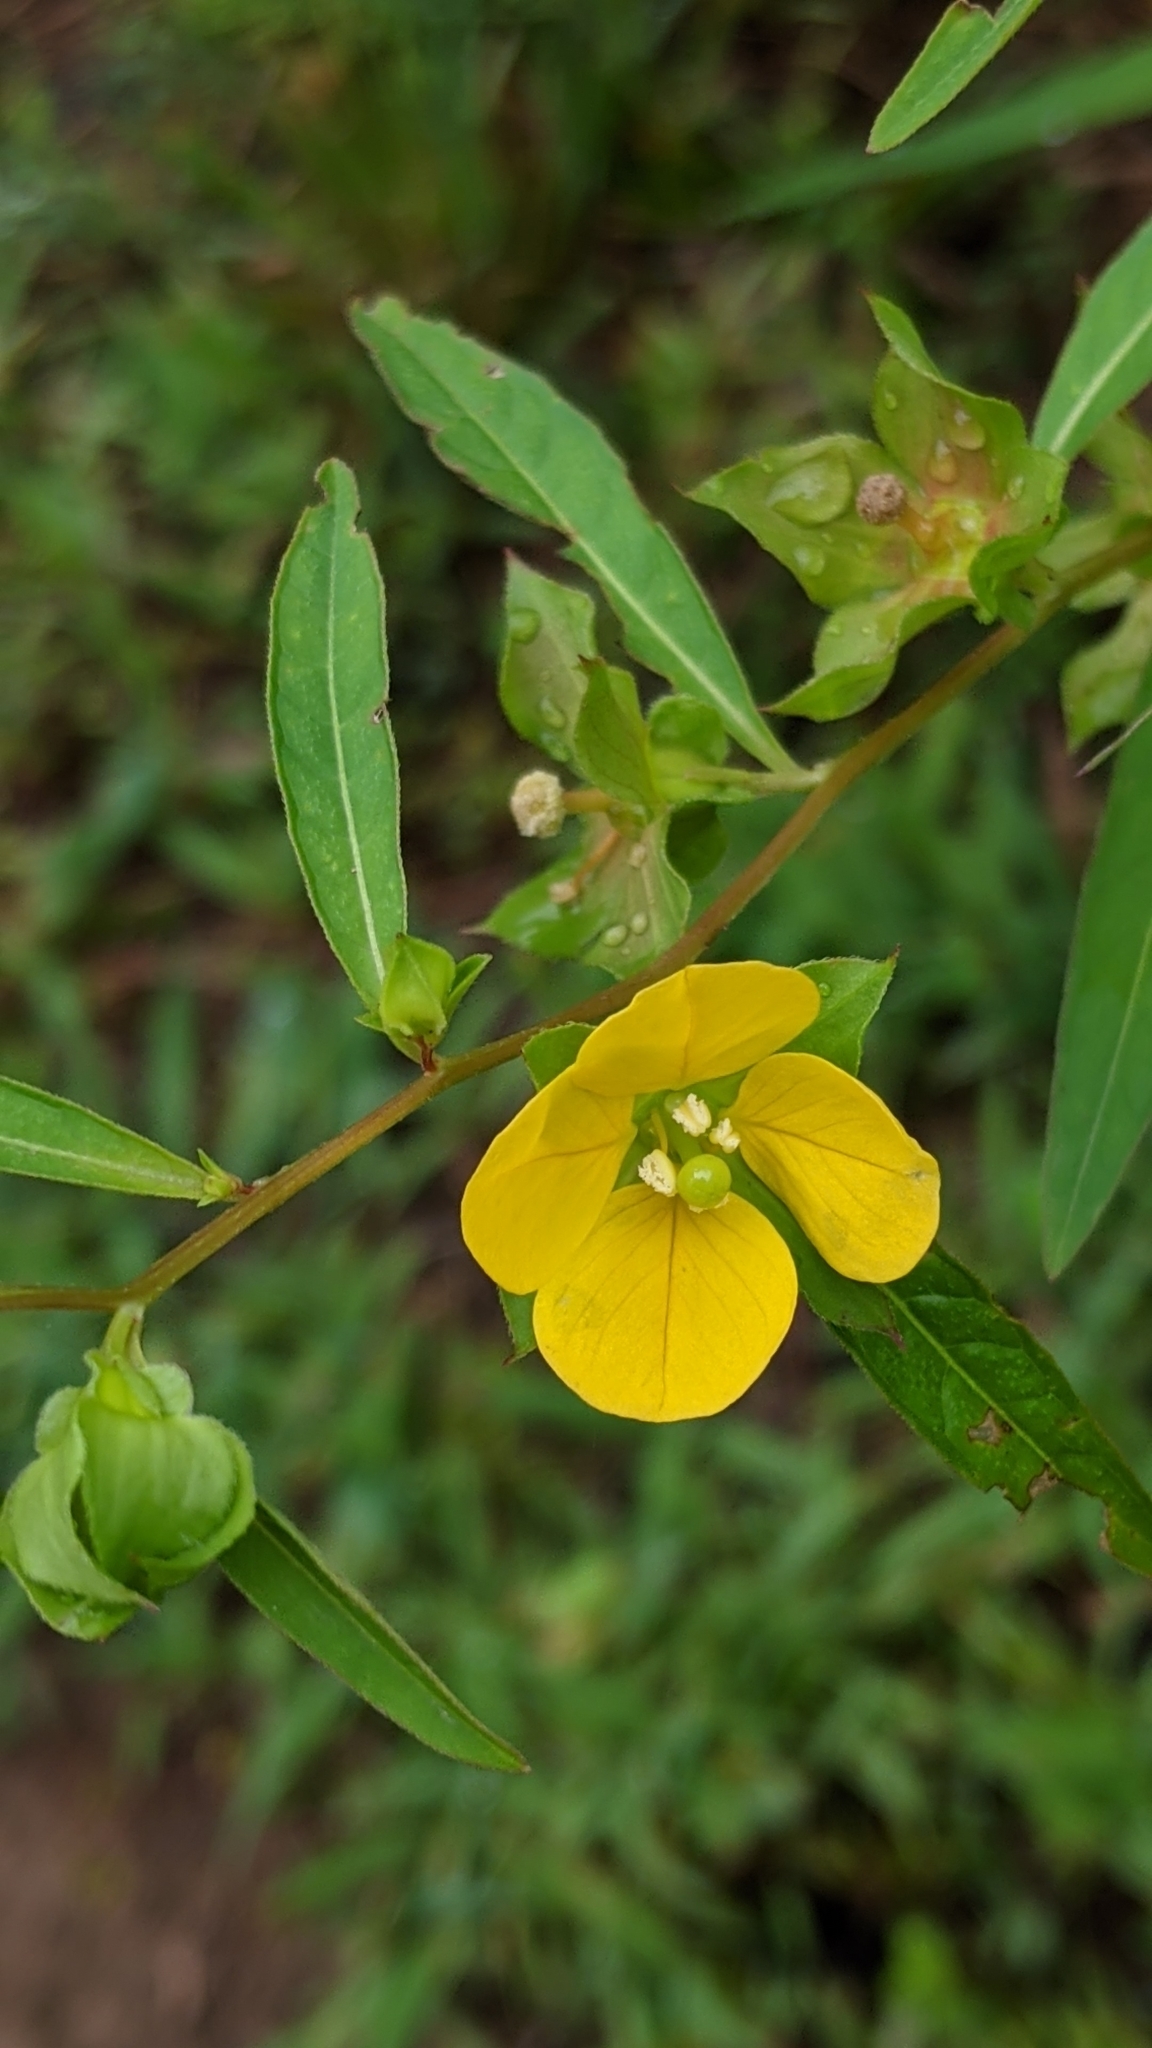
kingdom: Plantae
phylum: Tracheophyta
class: Magnoliopsida
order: Myrtales
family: Onagraceae
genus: Ludwigia
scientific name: Ludwigia alternifolia
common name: Rattlebox
